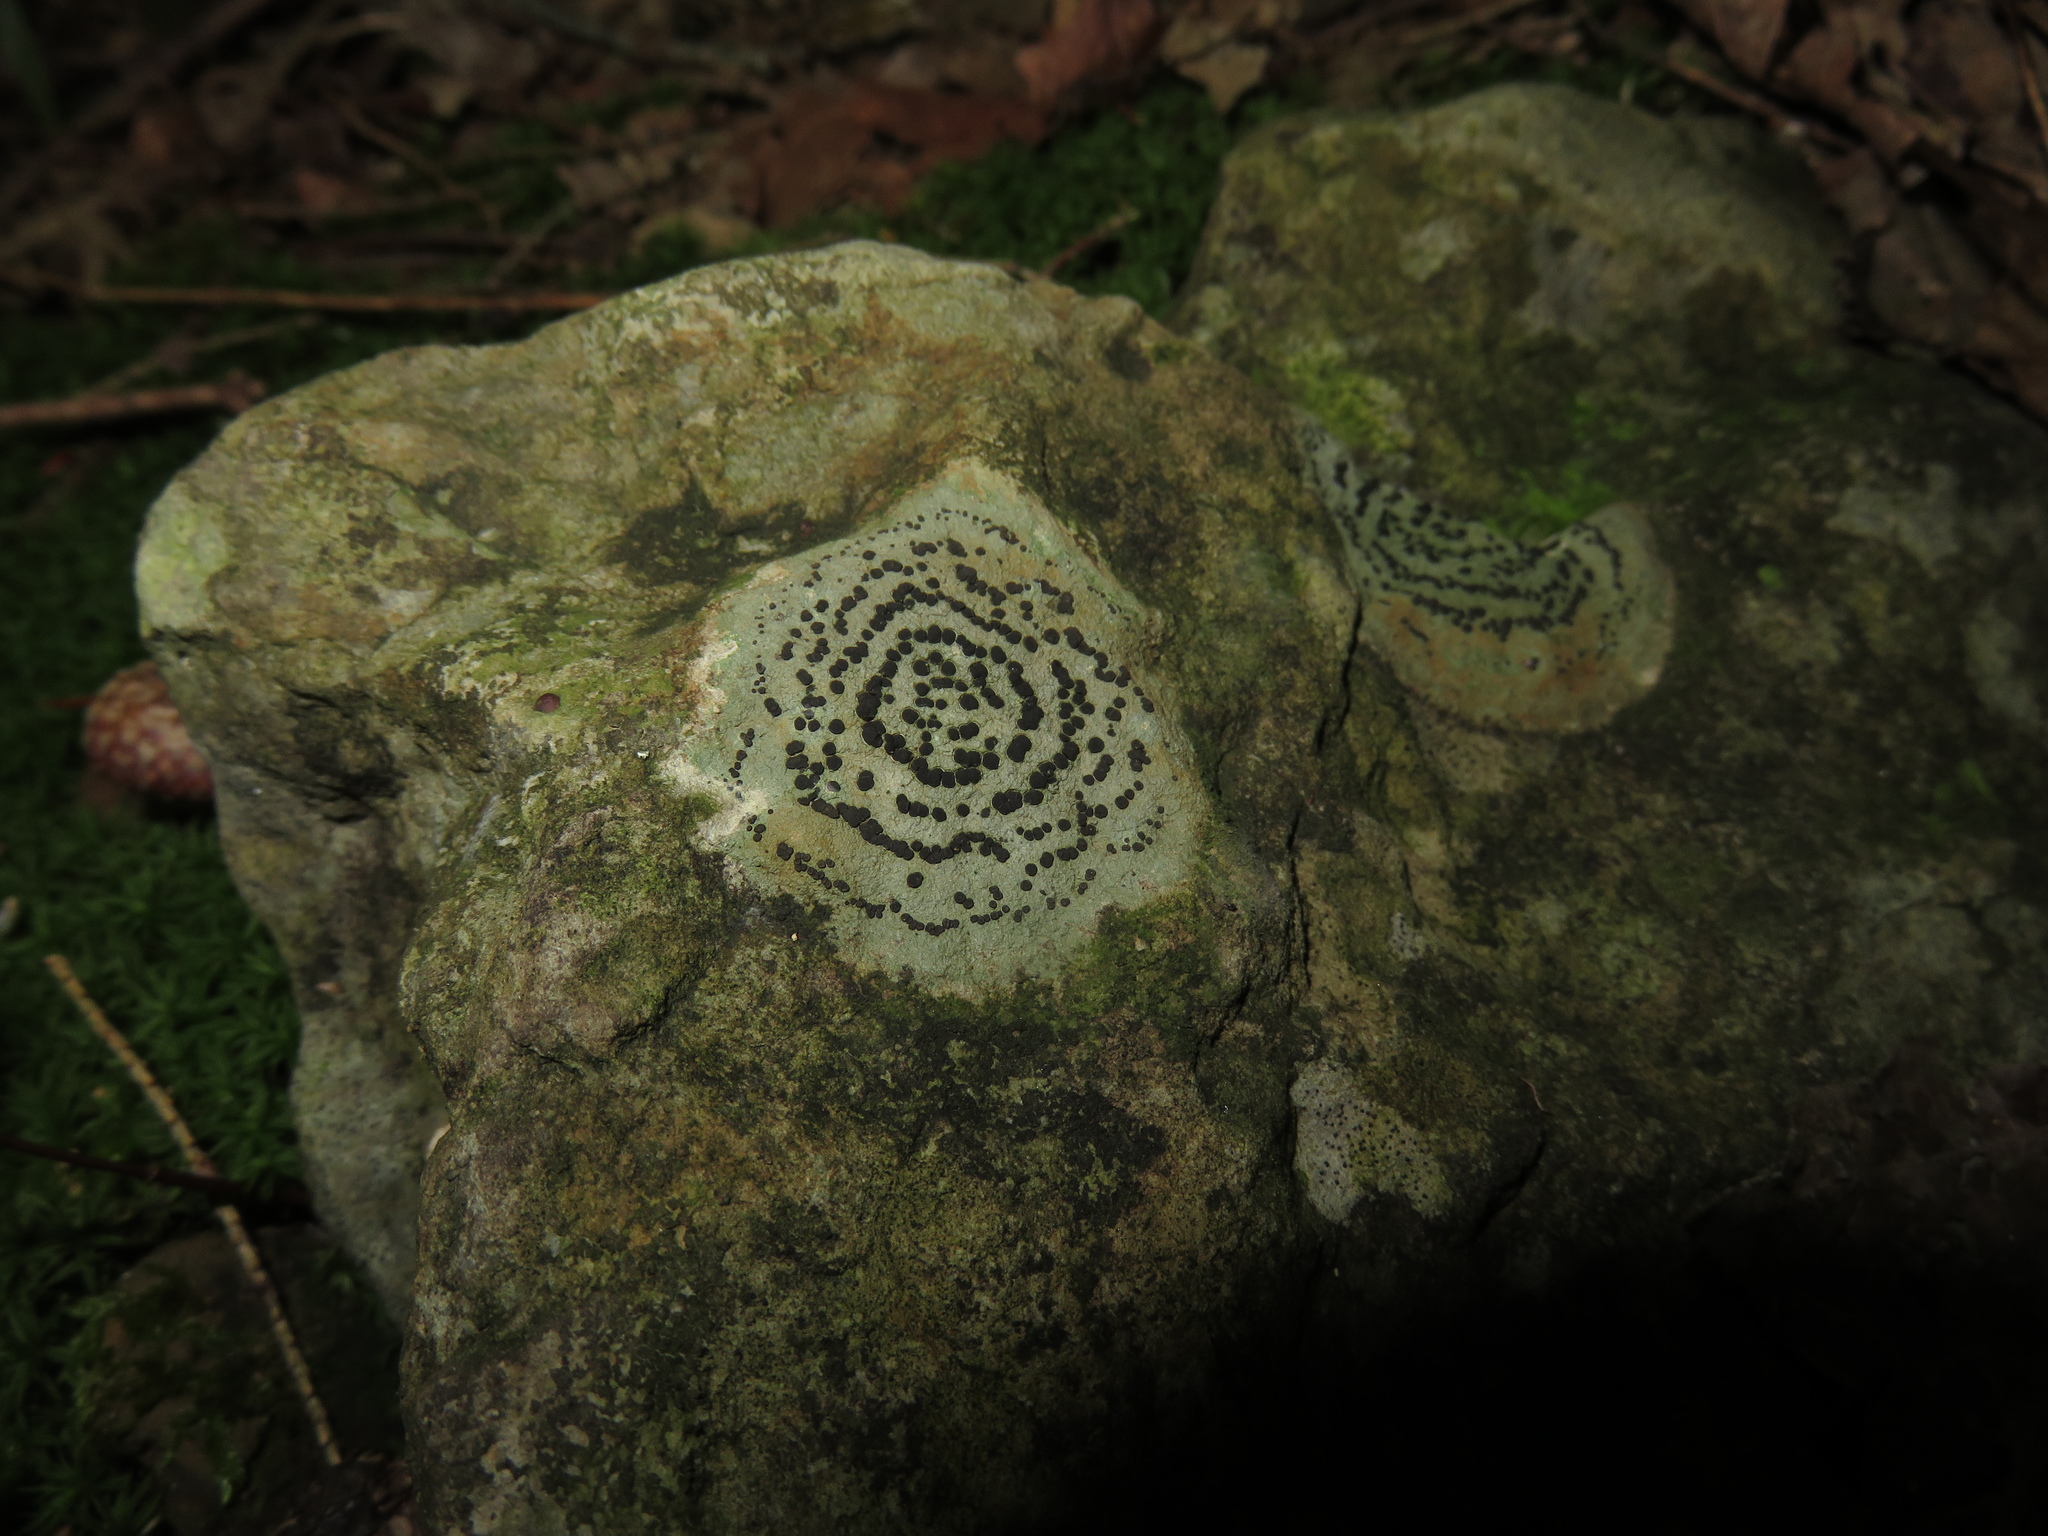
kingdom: Fungi
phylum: Ascomycota
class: Lecanoromycetes
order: Lecideales
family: Lecideaceae
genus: Porpidia
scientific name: Porpidia crustulata
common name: Concentric boulder lichen
